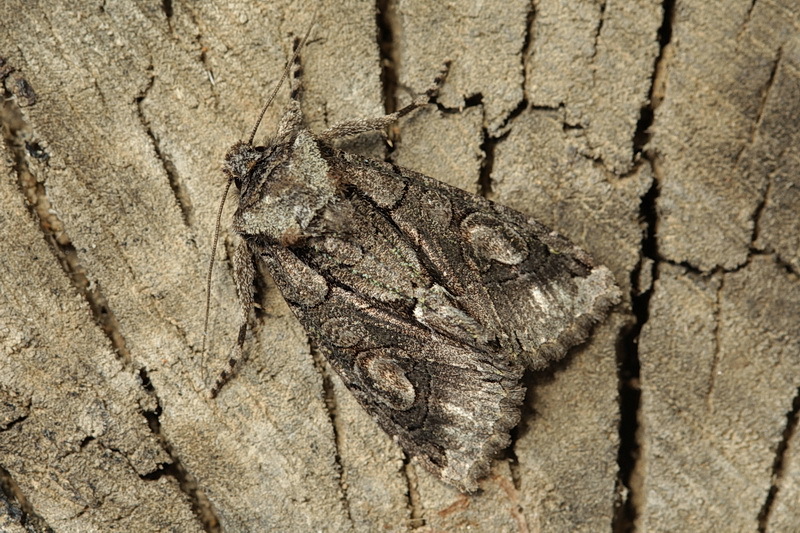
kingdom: Animalia
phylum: Arthropoda
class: Insecta
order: Lepidoptera
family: Noctuidae
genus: Allophyes
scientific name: Allophyes oxyacanthae
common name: Green-brindled crescent
